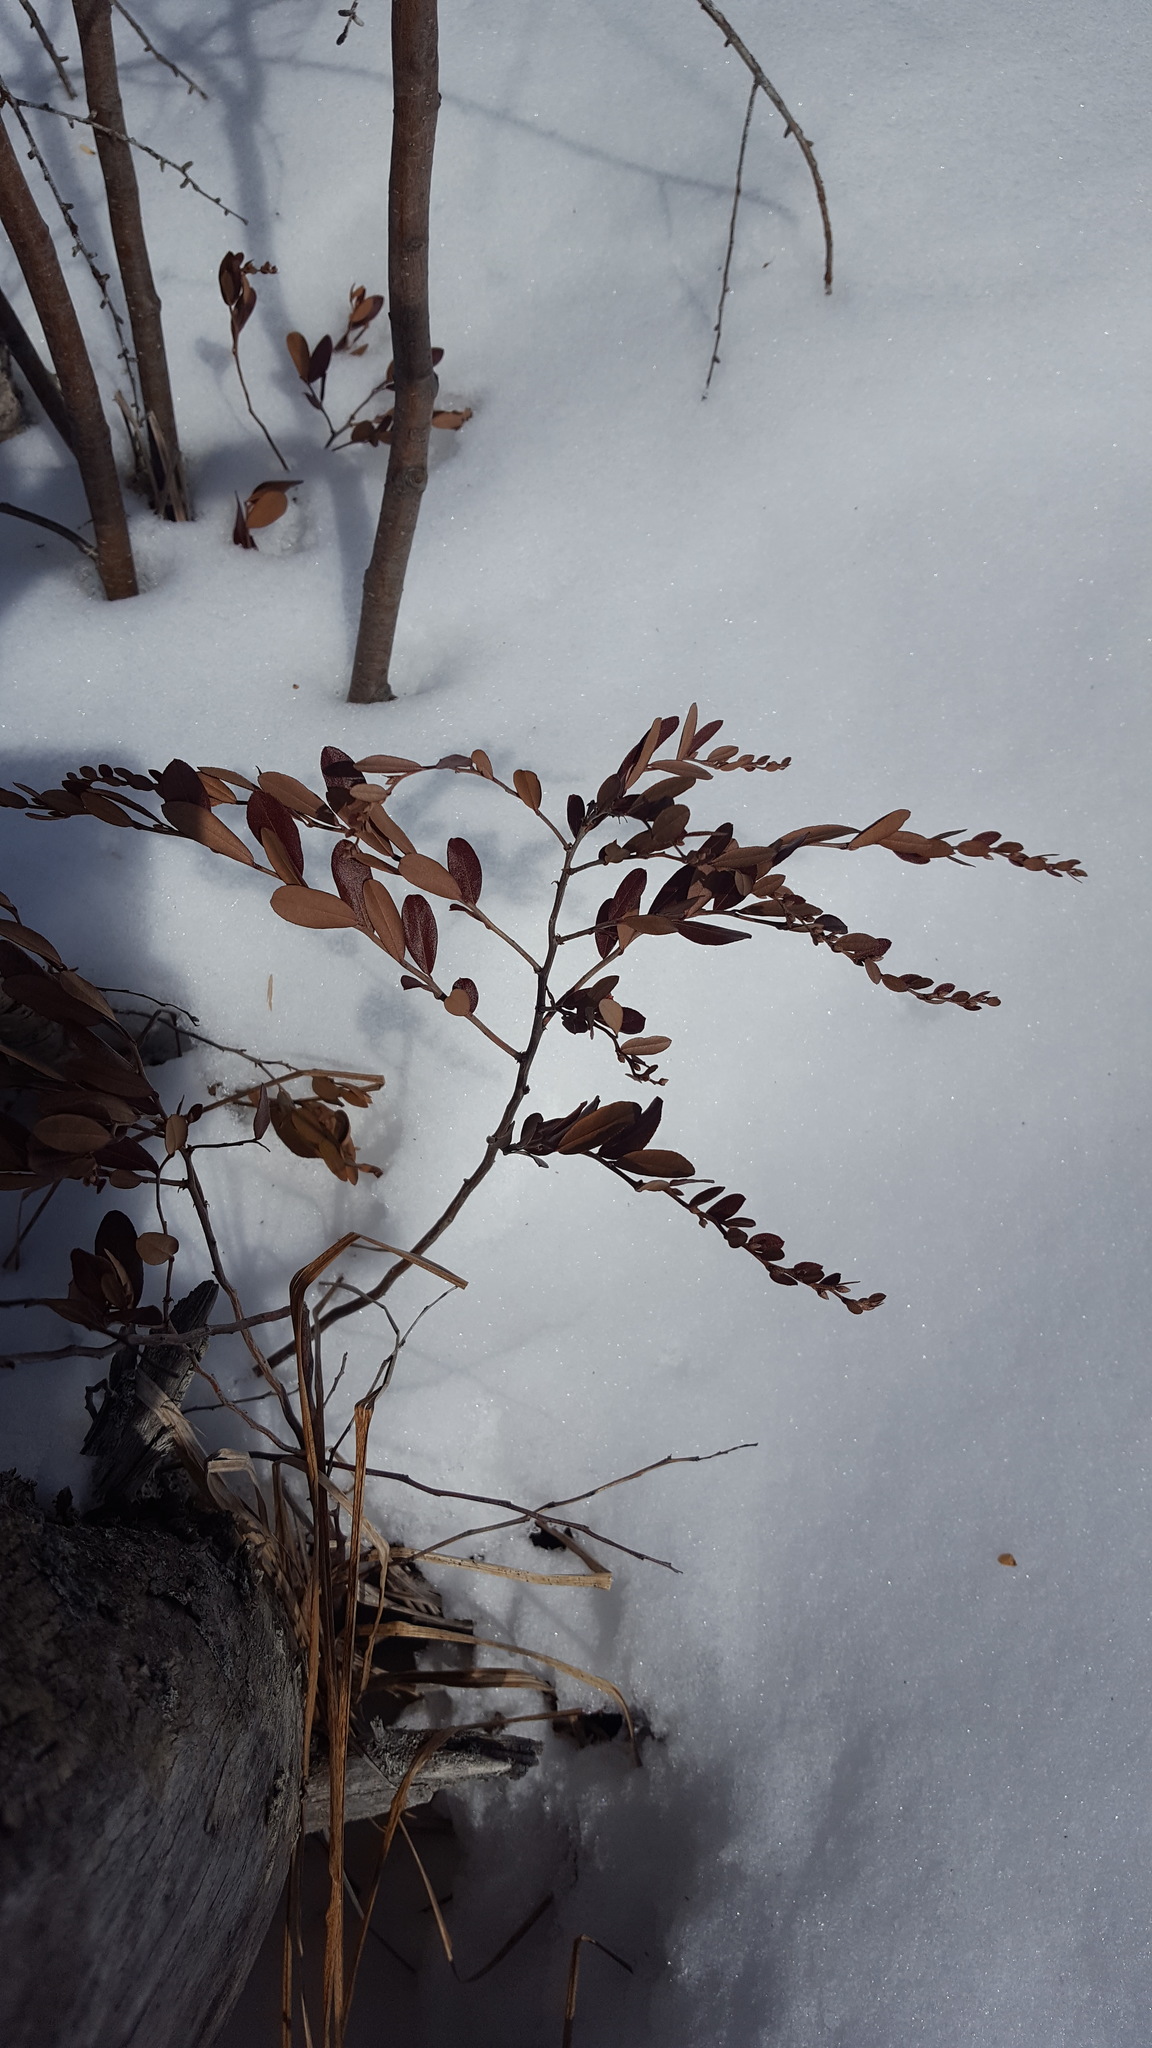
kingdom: Plantae
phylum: Tracheophyta
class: Magnoliopsida
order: Ericales
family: Ericaceae
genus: Chamaedaphne
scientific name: Chamaedaphne calyculata
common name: Leatherleaf
